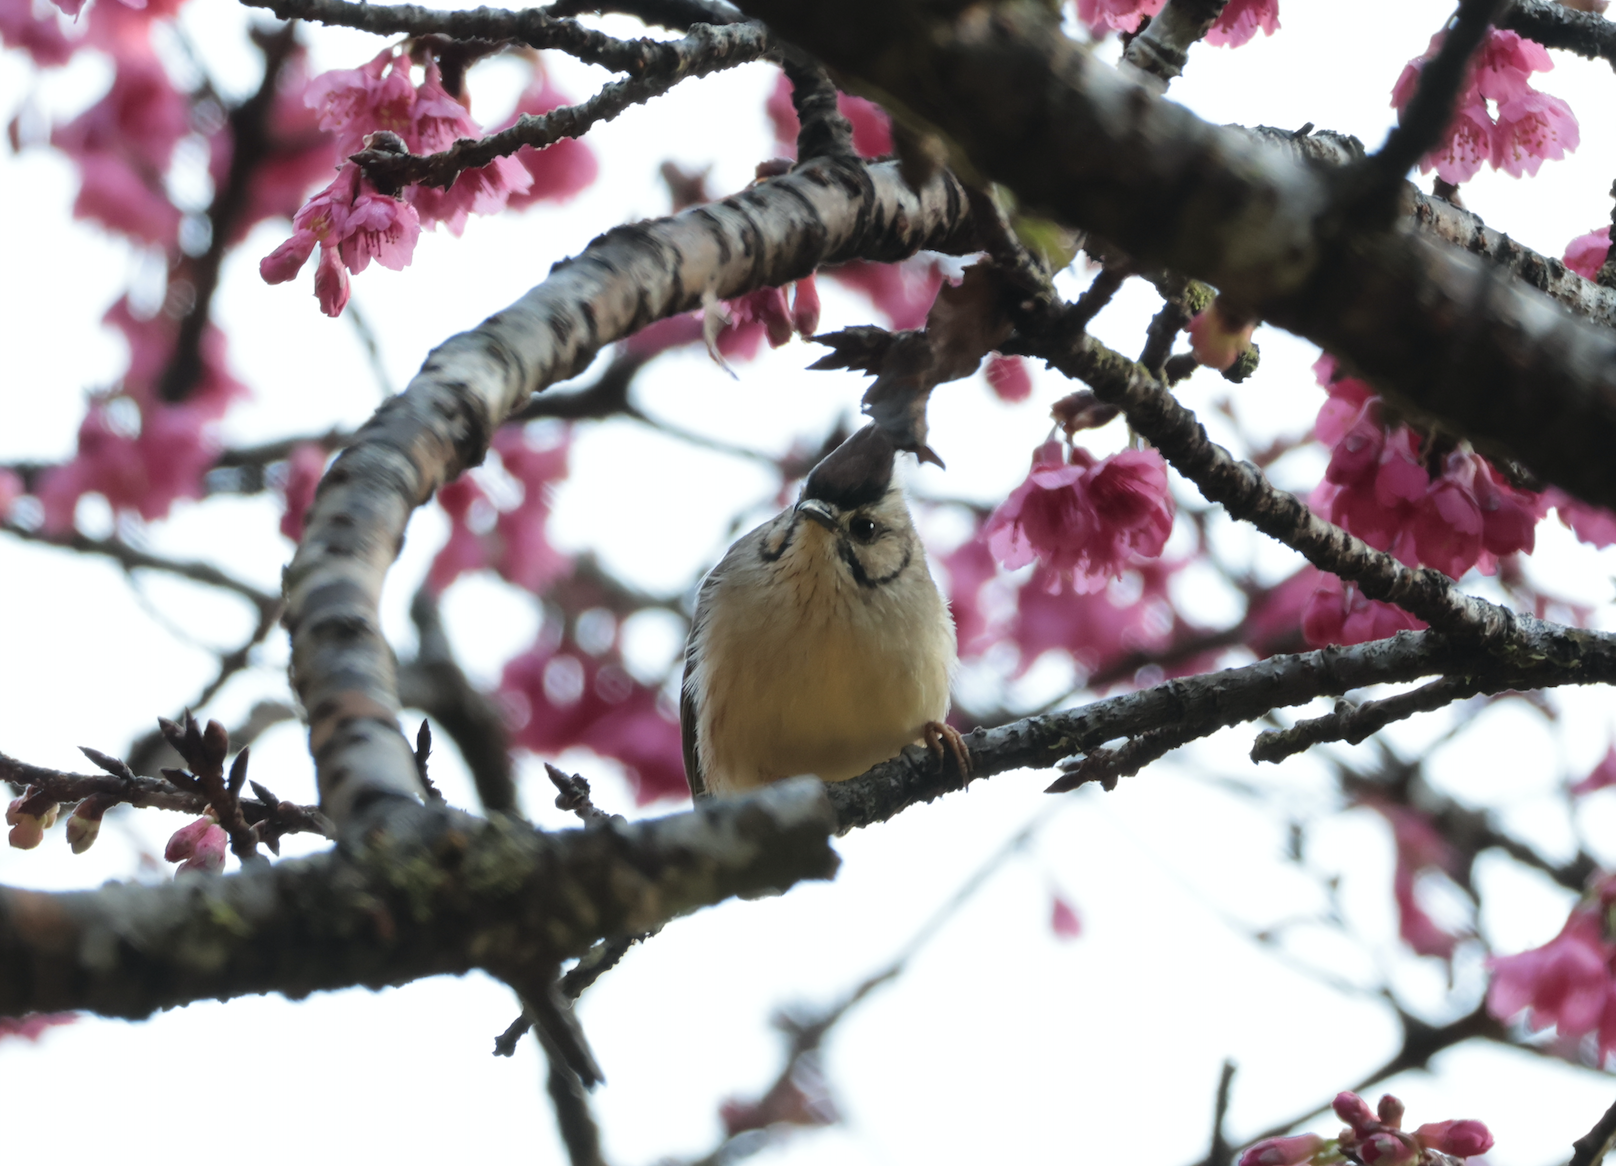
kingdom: Animalia
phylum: Chordata
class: Aves
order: Passeriformes
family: Zosteropidae
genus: Yuhina
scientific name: Yuhina brunneiceps
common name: Taiwan yuhina
